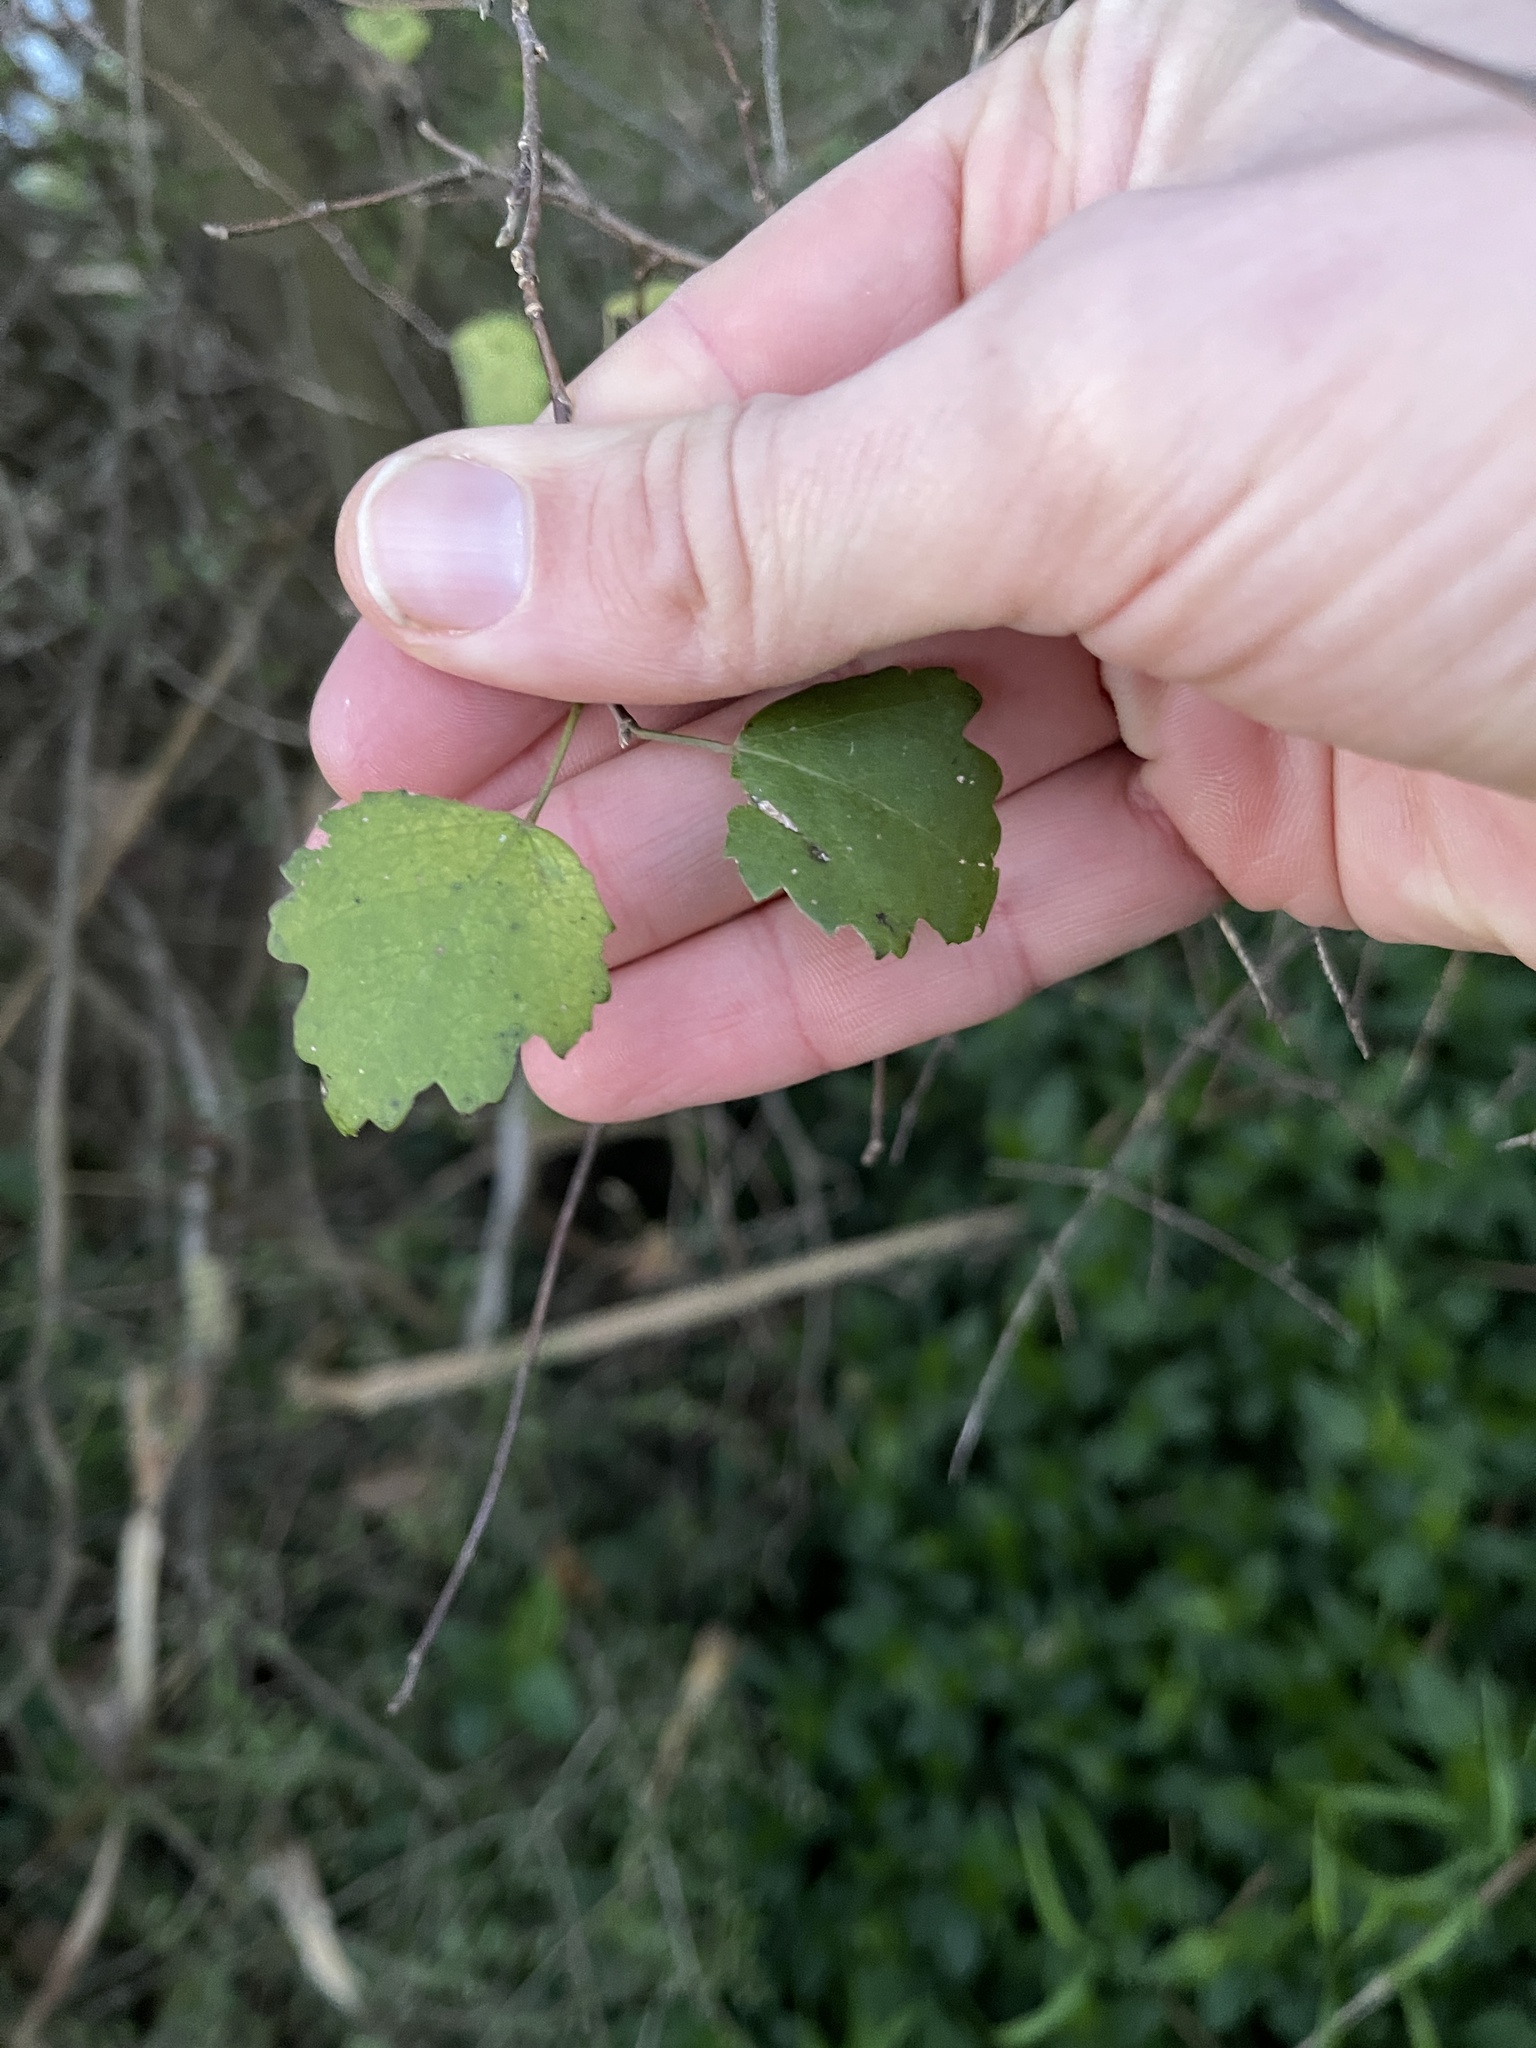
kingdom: Plantae
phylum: Tracheophyta
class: Magnoliopsida
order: Malvales
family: Malvaceae
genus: Plagianthus
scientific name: Plagianthus regius
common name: Manatu
